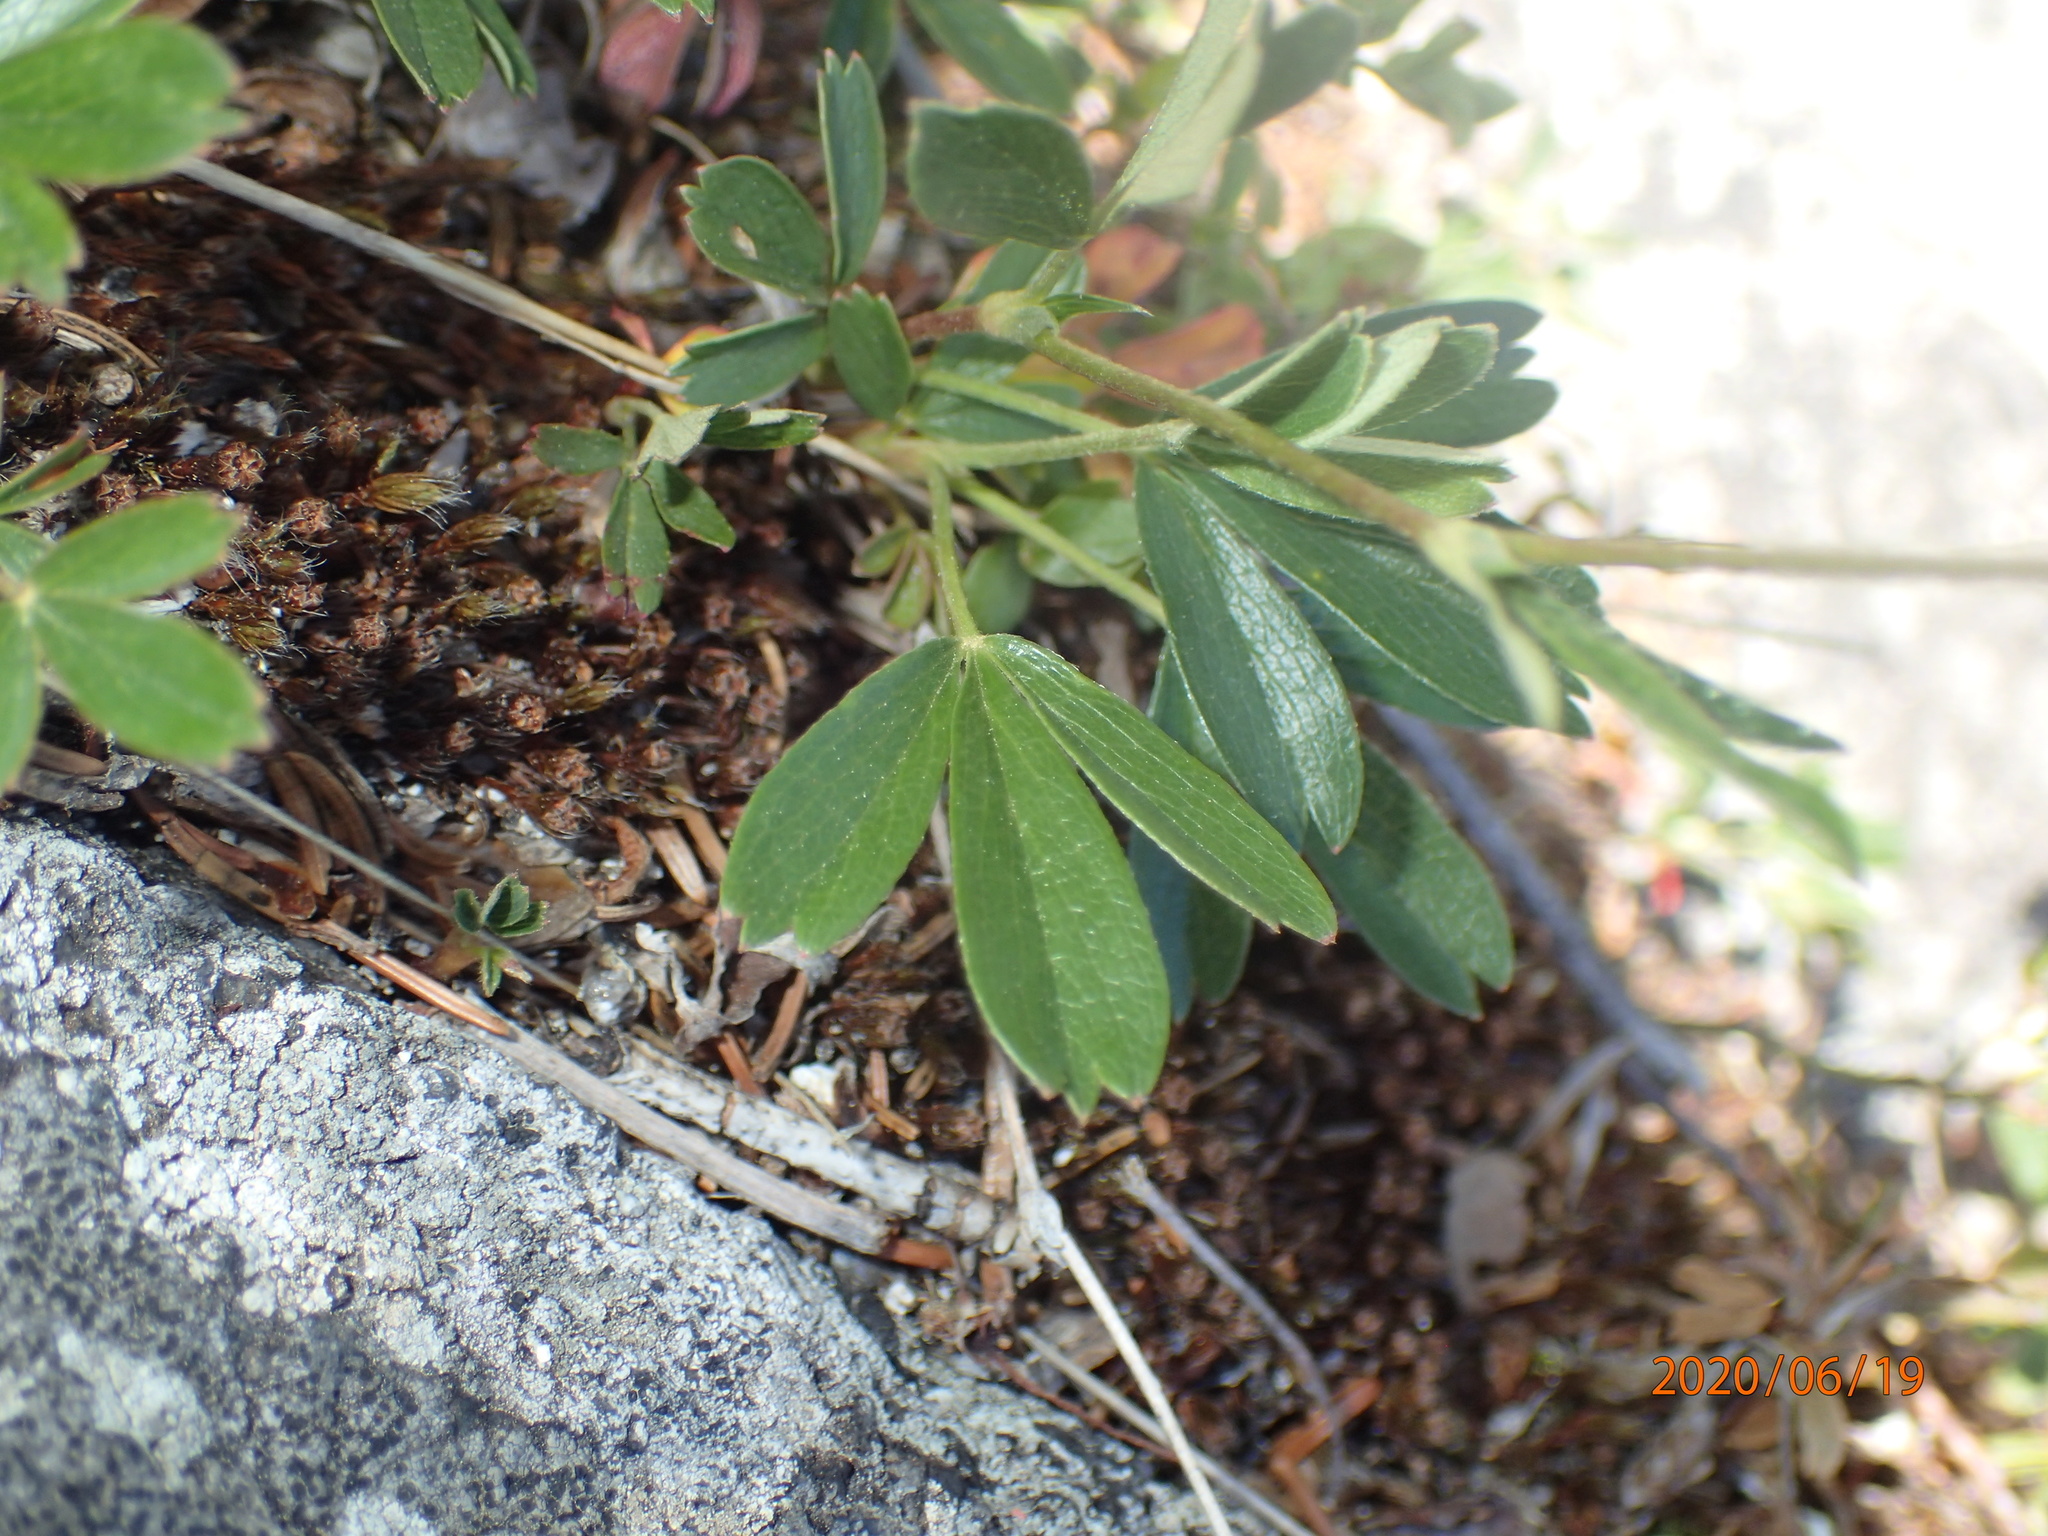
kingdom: Plantae
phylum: Tracheophyta
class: Magnoliopsida
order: Rosales
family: Rosaceae
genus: Sibbaldia
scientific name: Sibbaldia tridentata
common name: Three-toothed cinquefoil
